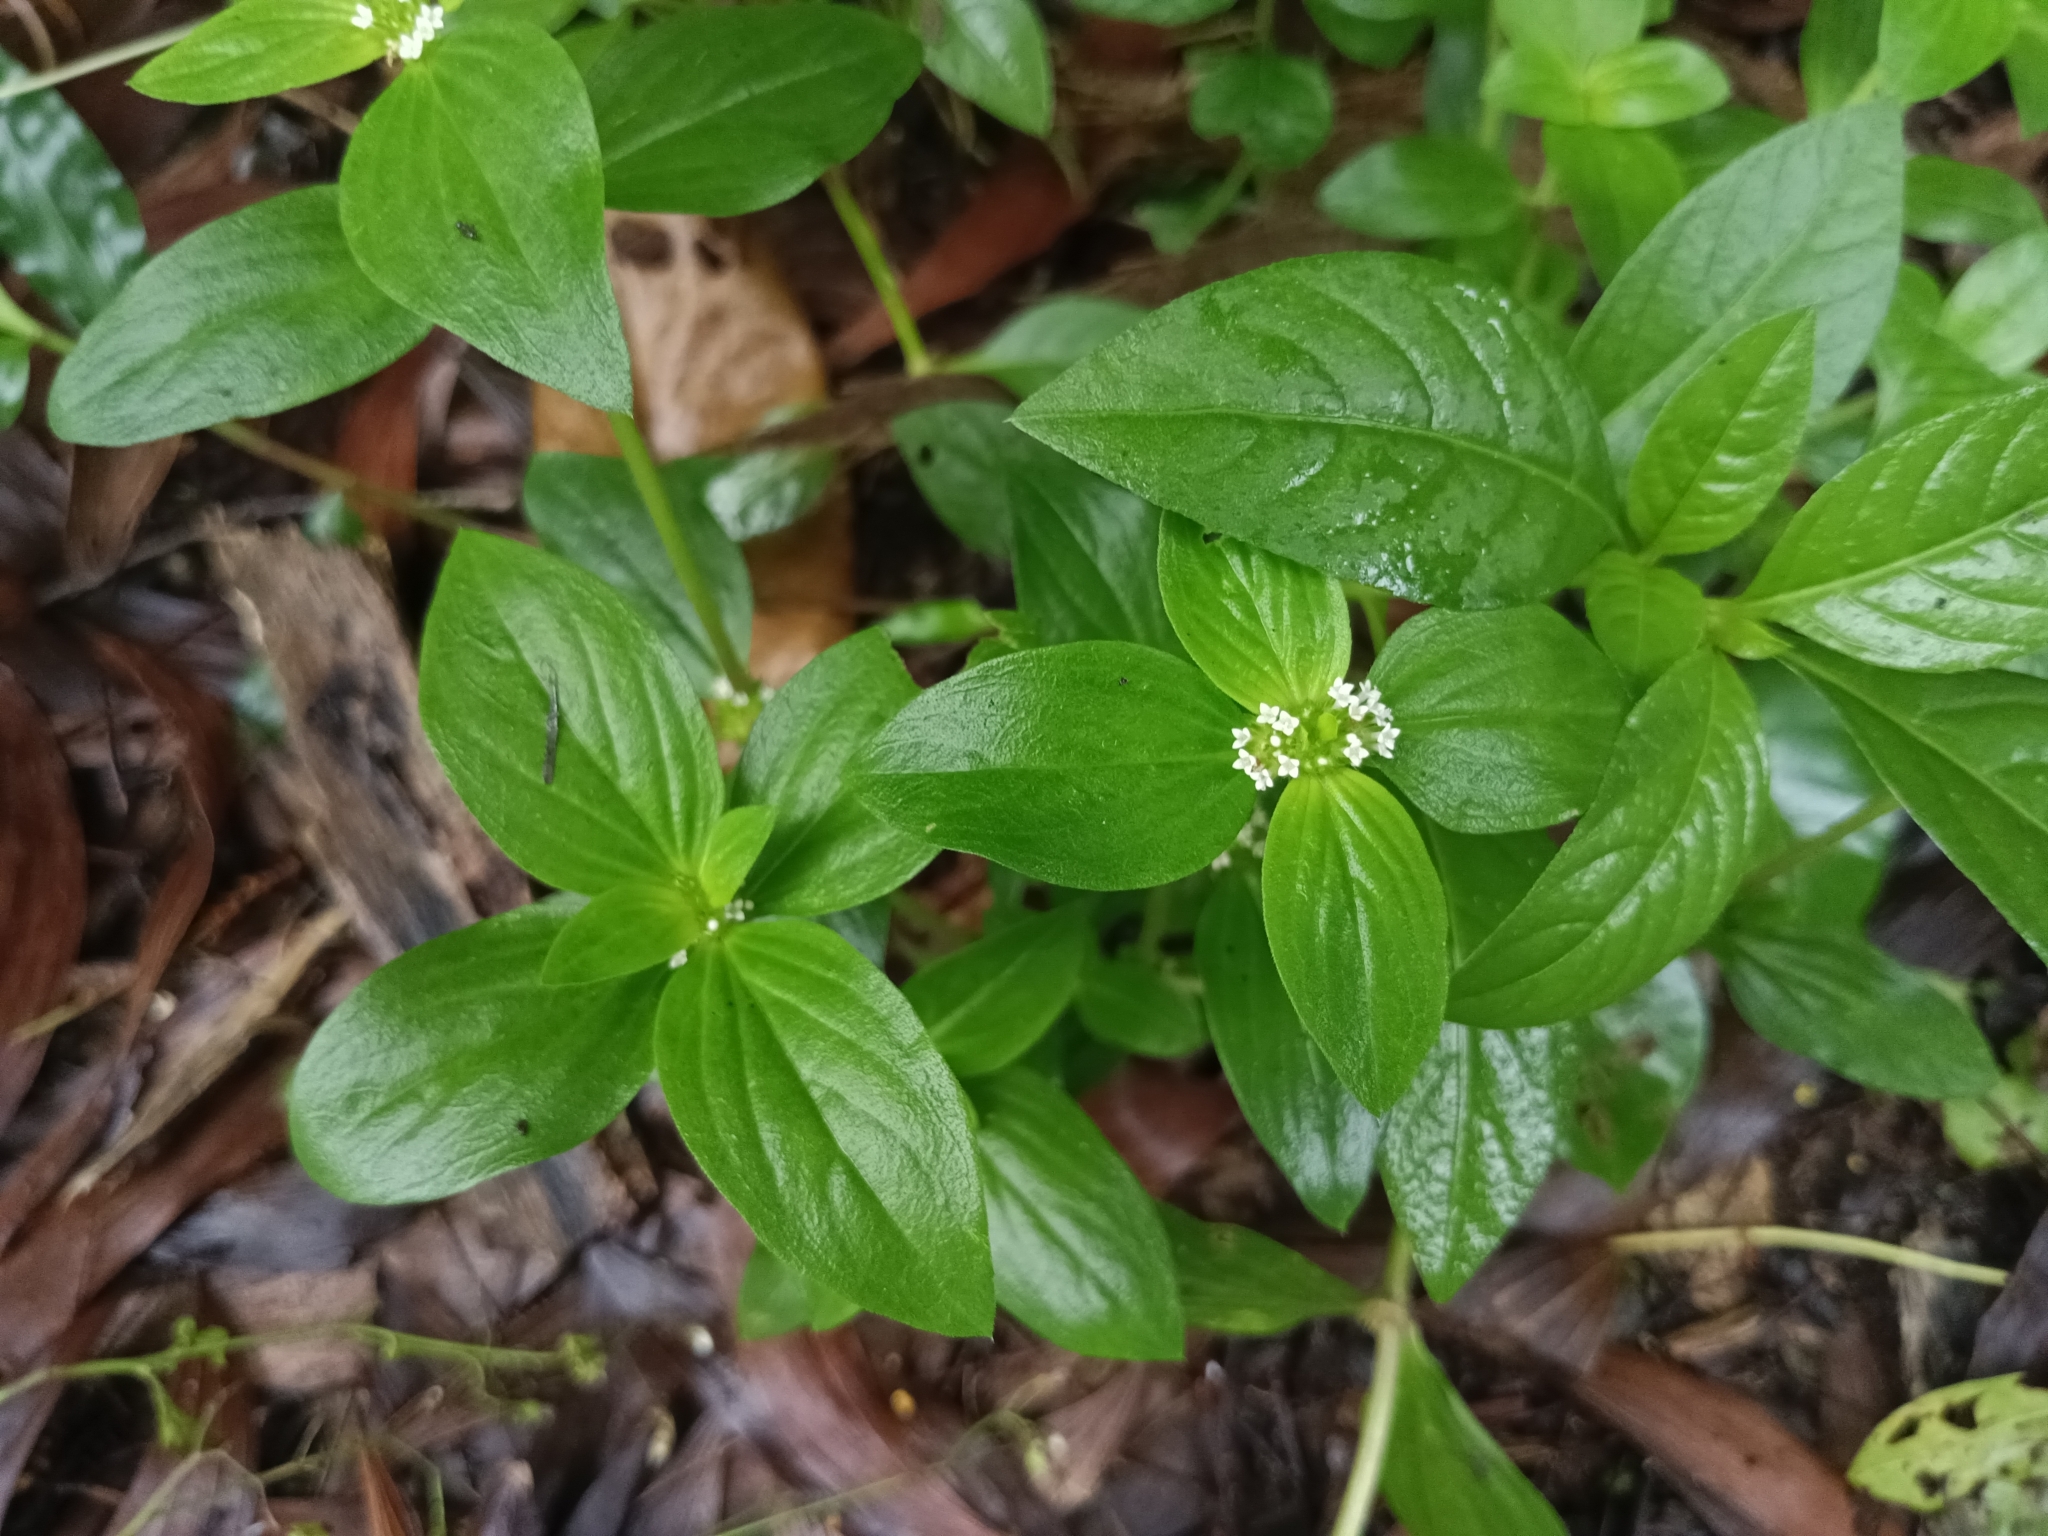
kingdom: Plantae
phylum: Tracheophyta
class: Magnoliopsida
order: Gentianales
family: Rubiaceae
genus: Mitracarpus
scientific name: Mitracarpus hirtus
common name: Tropical girdlepod
